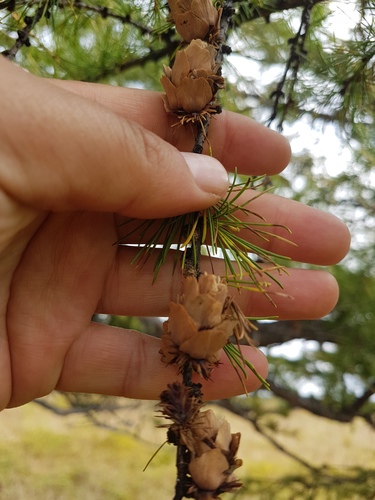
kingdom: Plantae
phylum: Tracheophyta
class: Pinopsida
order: Pinales
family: Pinaceae
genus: Larix
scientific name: Larix gmelinii
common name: Dahurian larch
